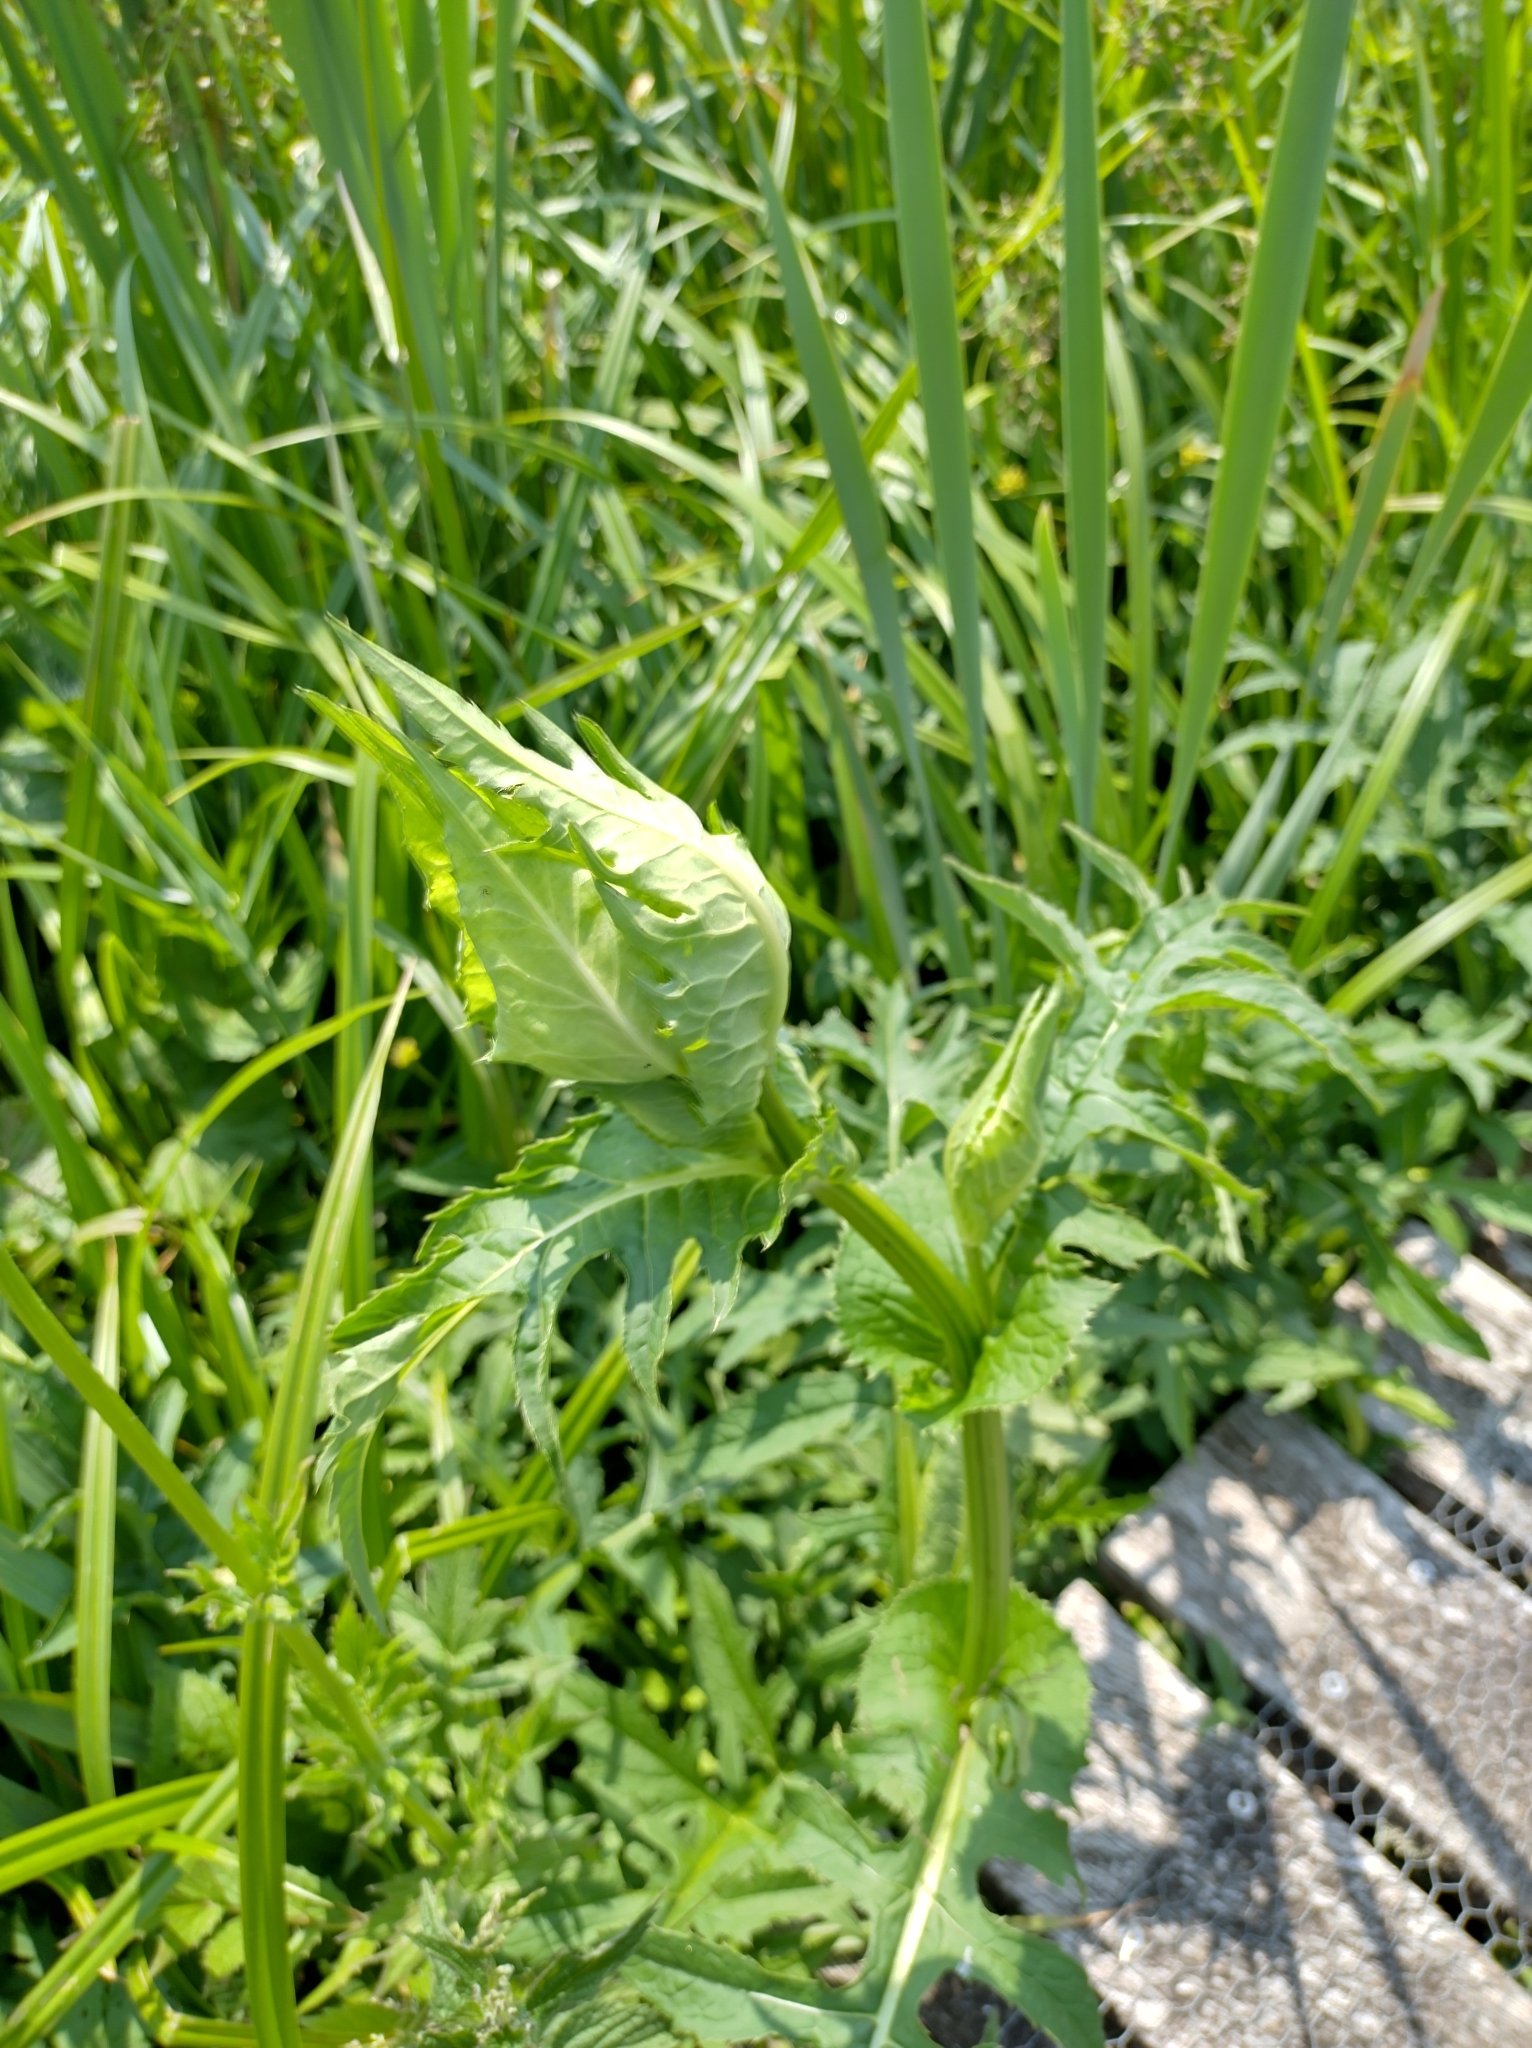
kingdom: Plantae
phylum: Tracheophyta
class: Magnoliopsida
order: Asterales
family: Asteraceae
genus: Cirsium
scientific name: Cirsium oleraceum
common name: Cabbage thistle
